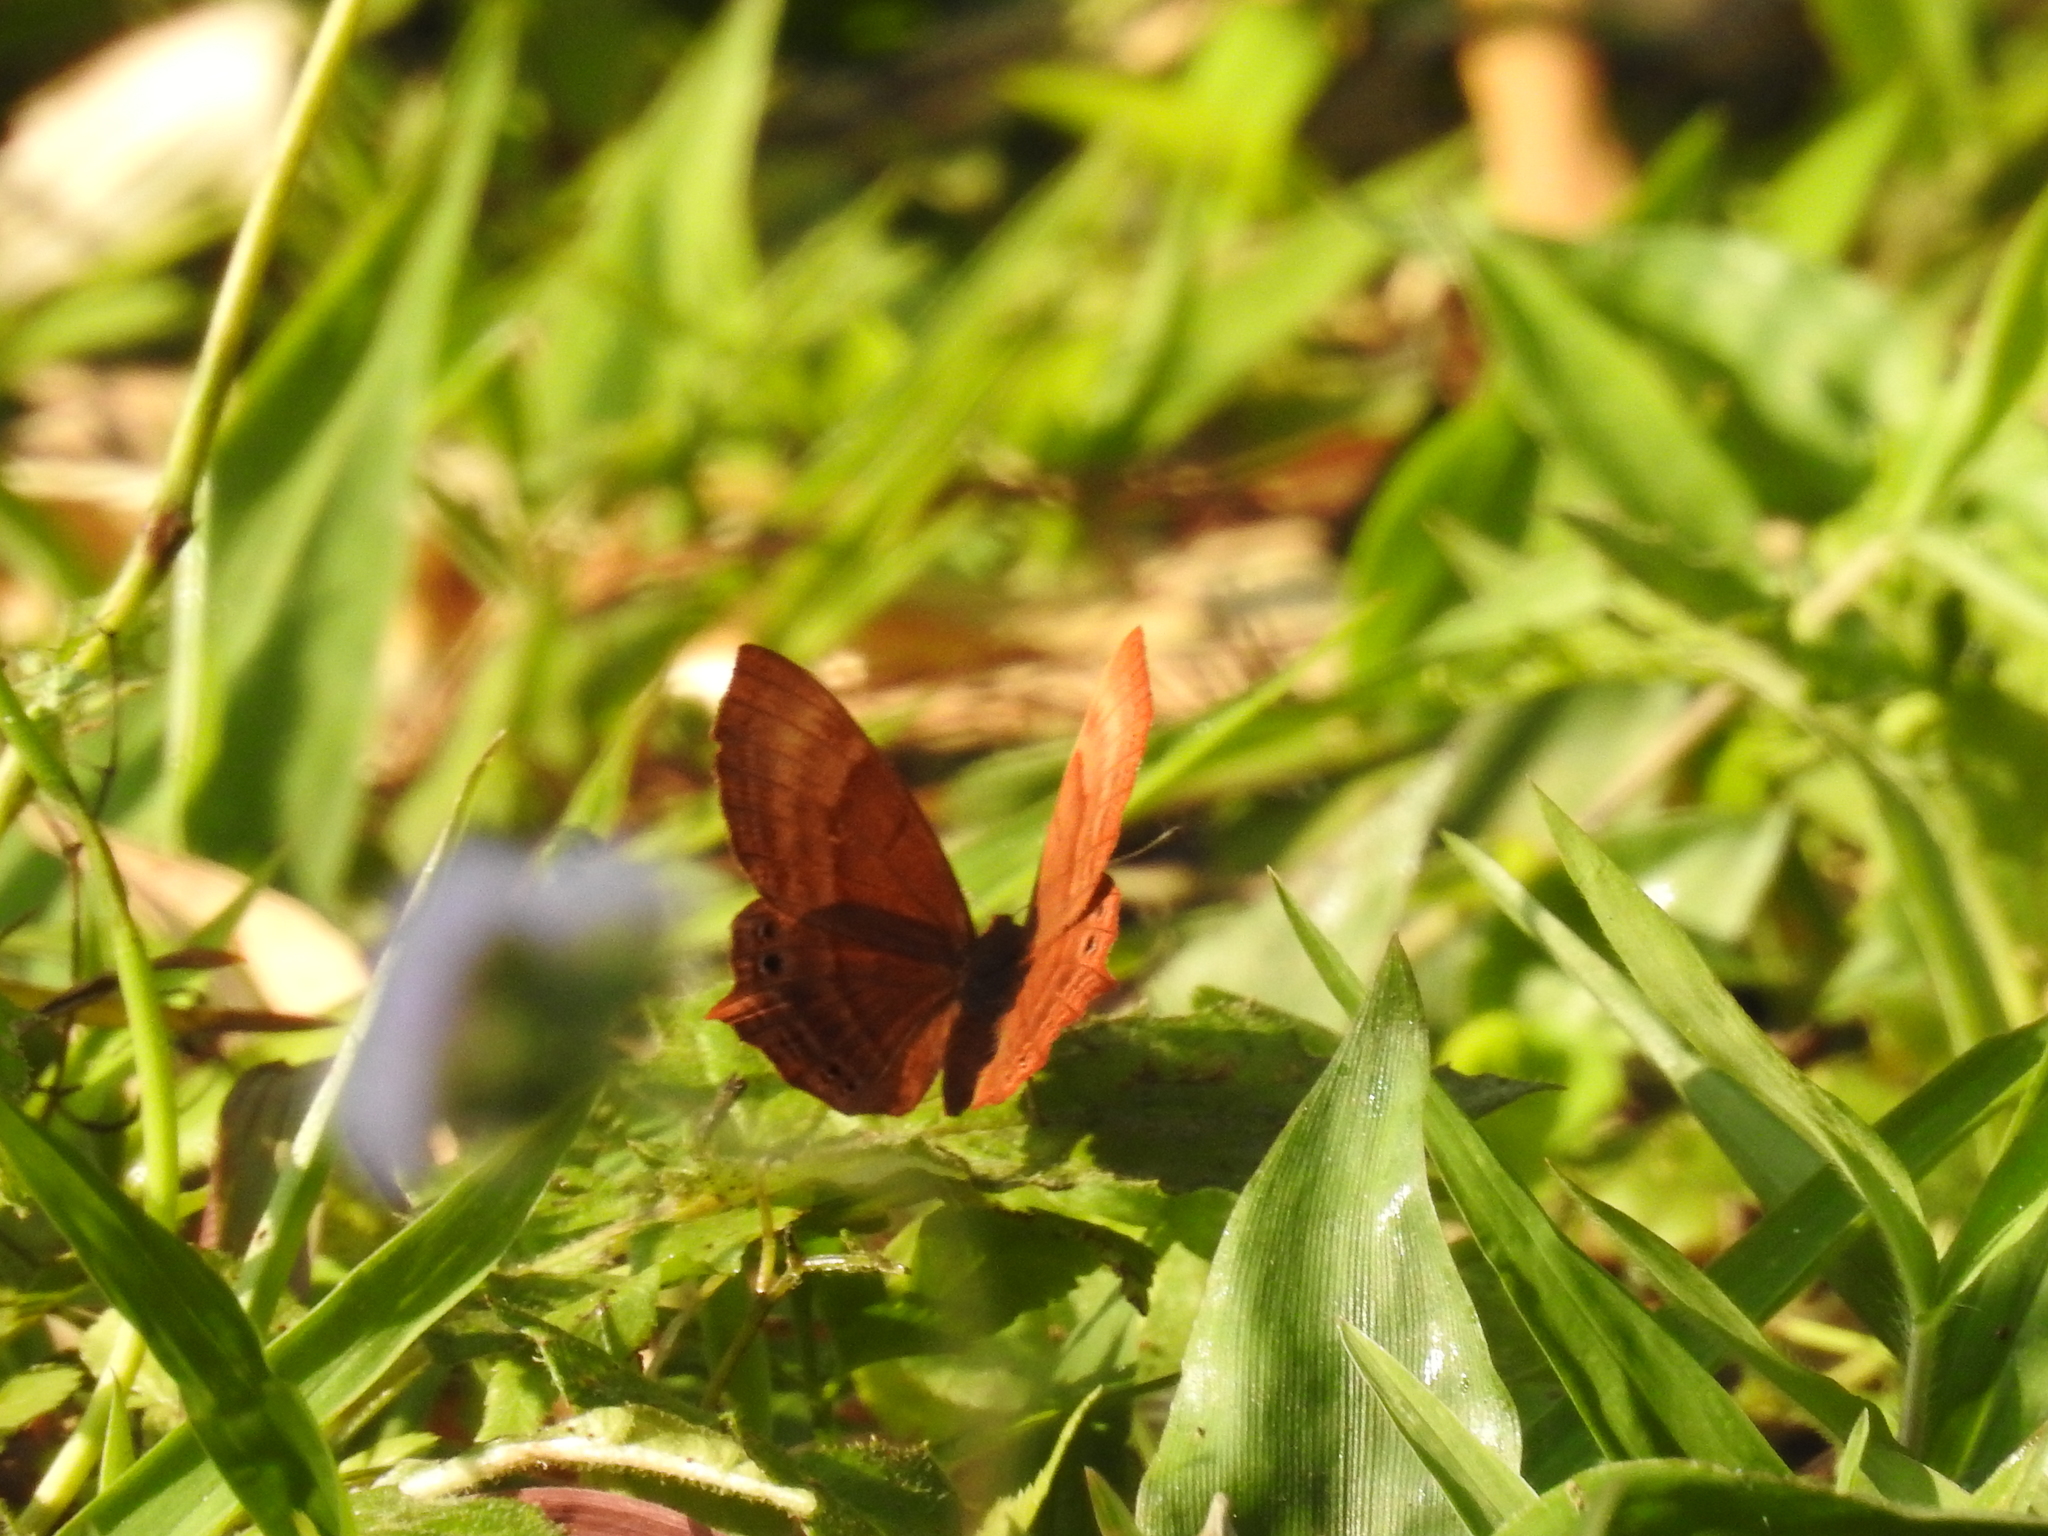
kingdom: Animalia
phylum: Arthropoda
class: Insecta
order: Lepidoptera
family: Lycaenidae
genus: Abisara
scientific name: Abisara echeria
